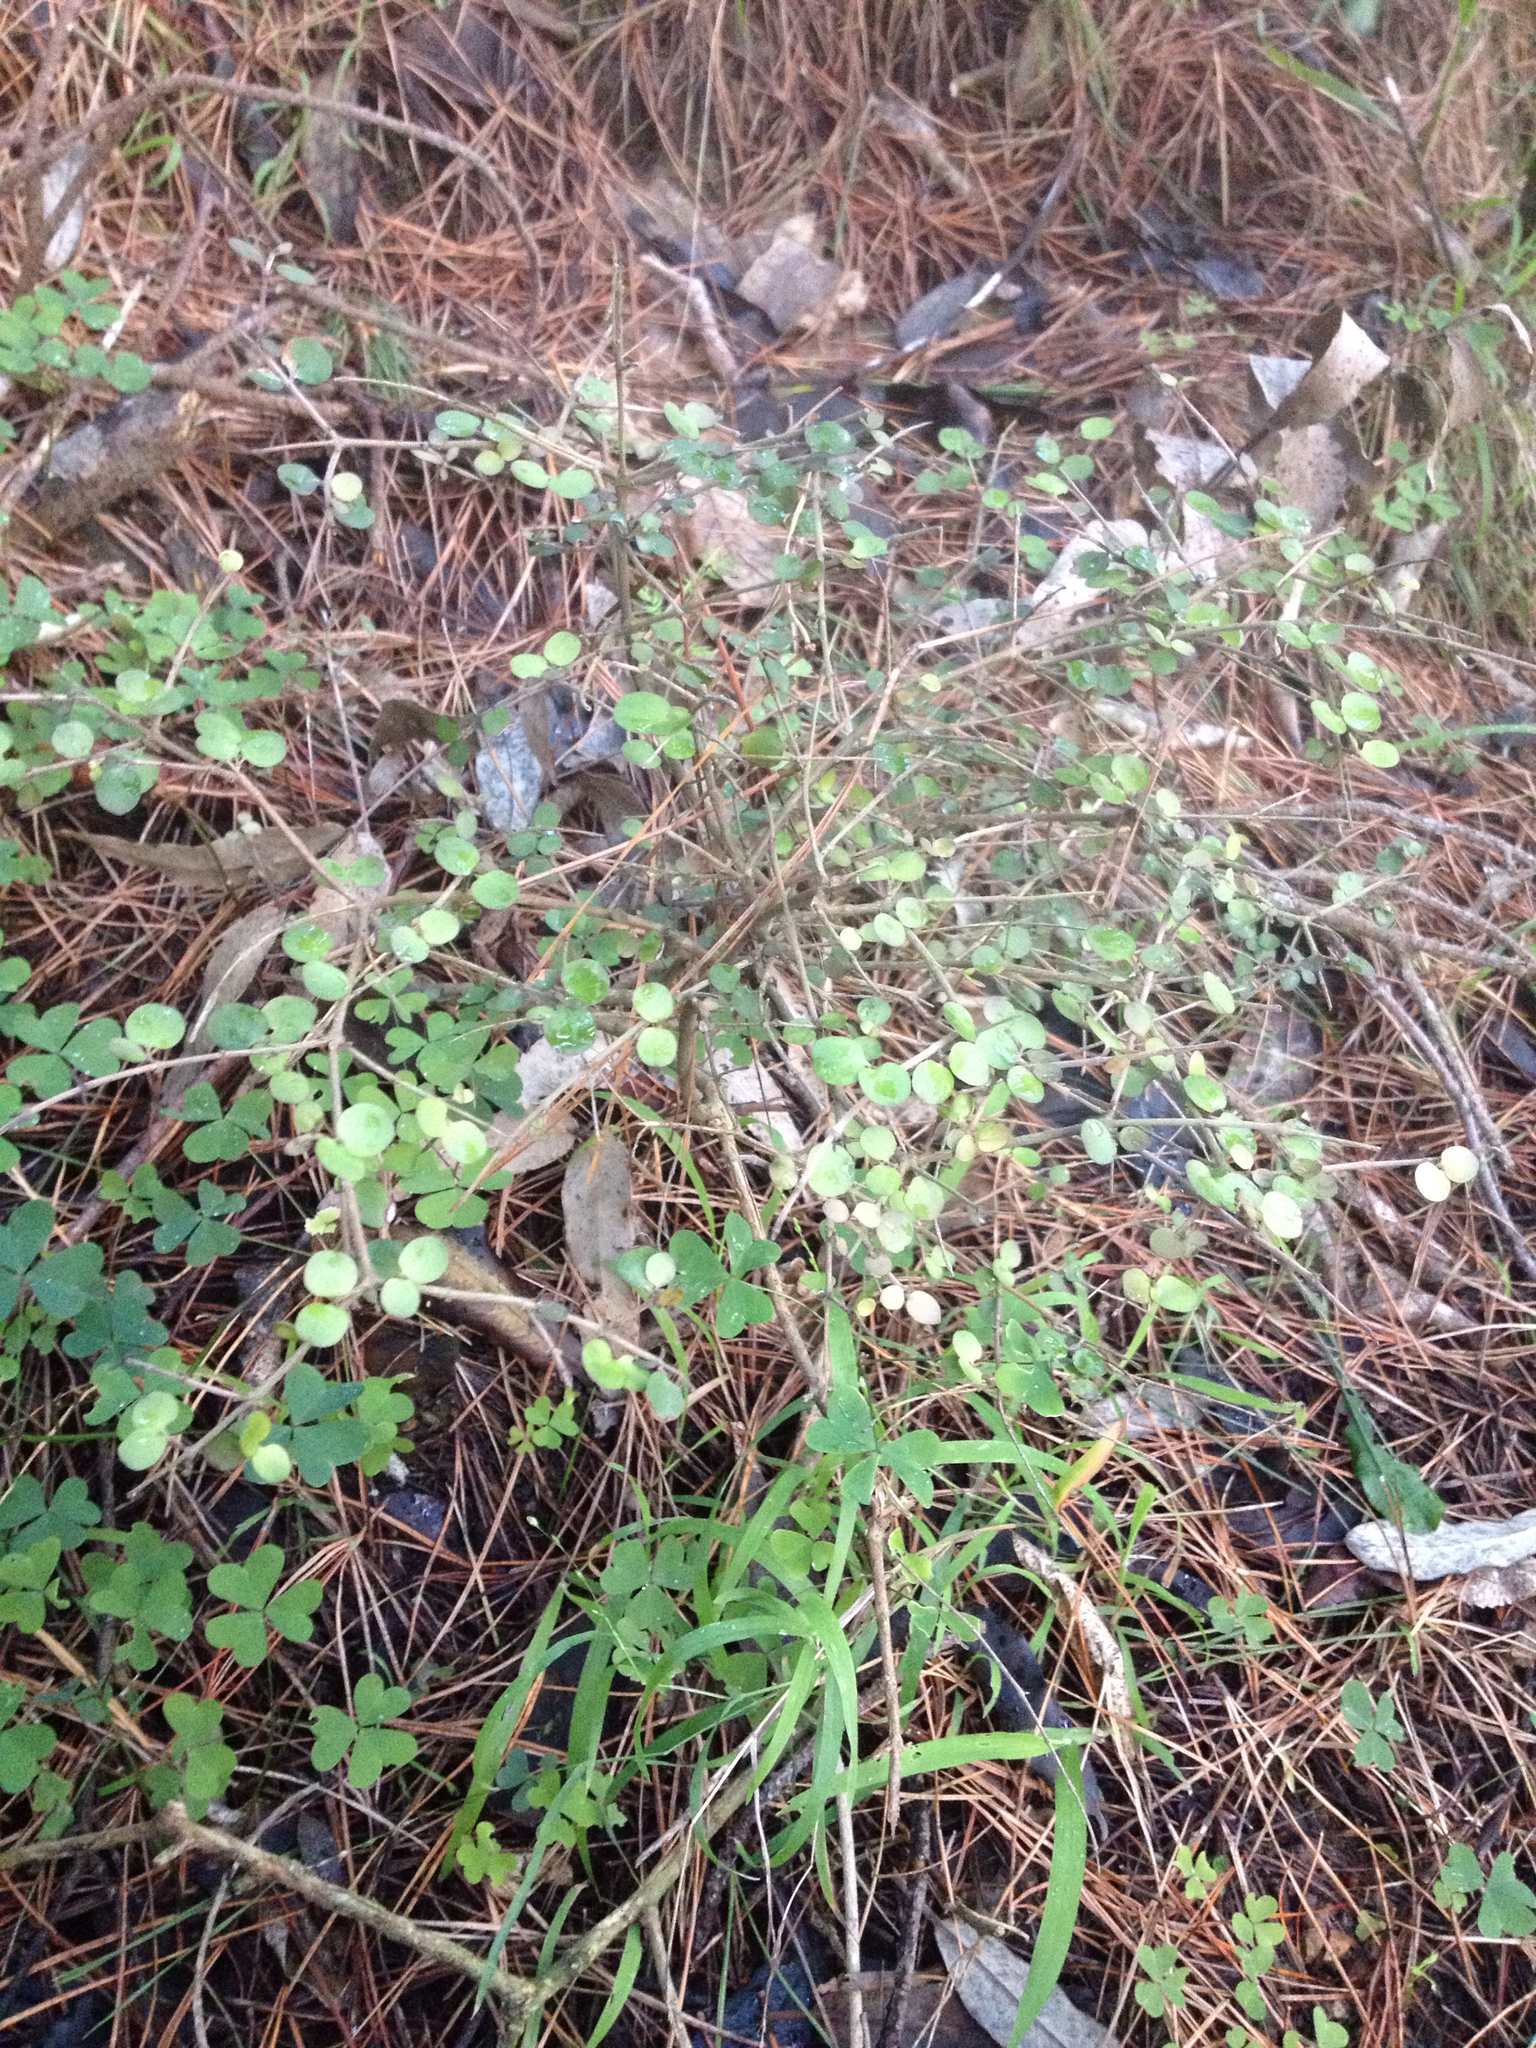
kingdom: Plantae
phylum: Tracheophyta
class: Magnoliopsida
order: Gentianales
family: Rubiaceae
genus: Coprosma
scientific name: Coprosma rhamnoides
